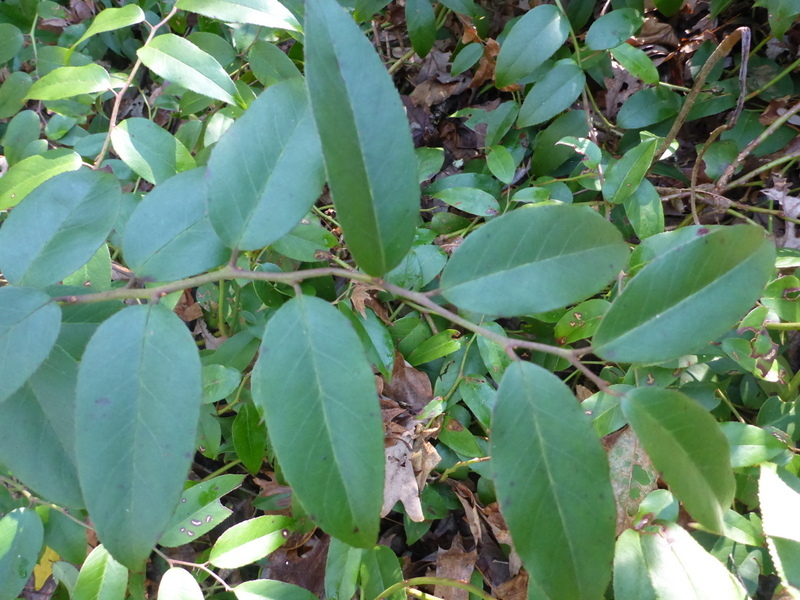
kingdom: Plantae
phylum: Tracheophyta
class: Magnoliopsida
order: Ericales
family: Ericaceae
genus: Leucothoe
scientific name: Leucothoe fontanesiana
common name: Fetterbush
